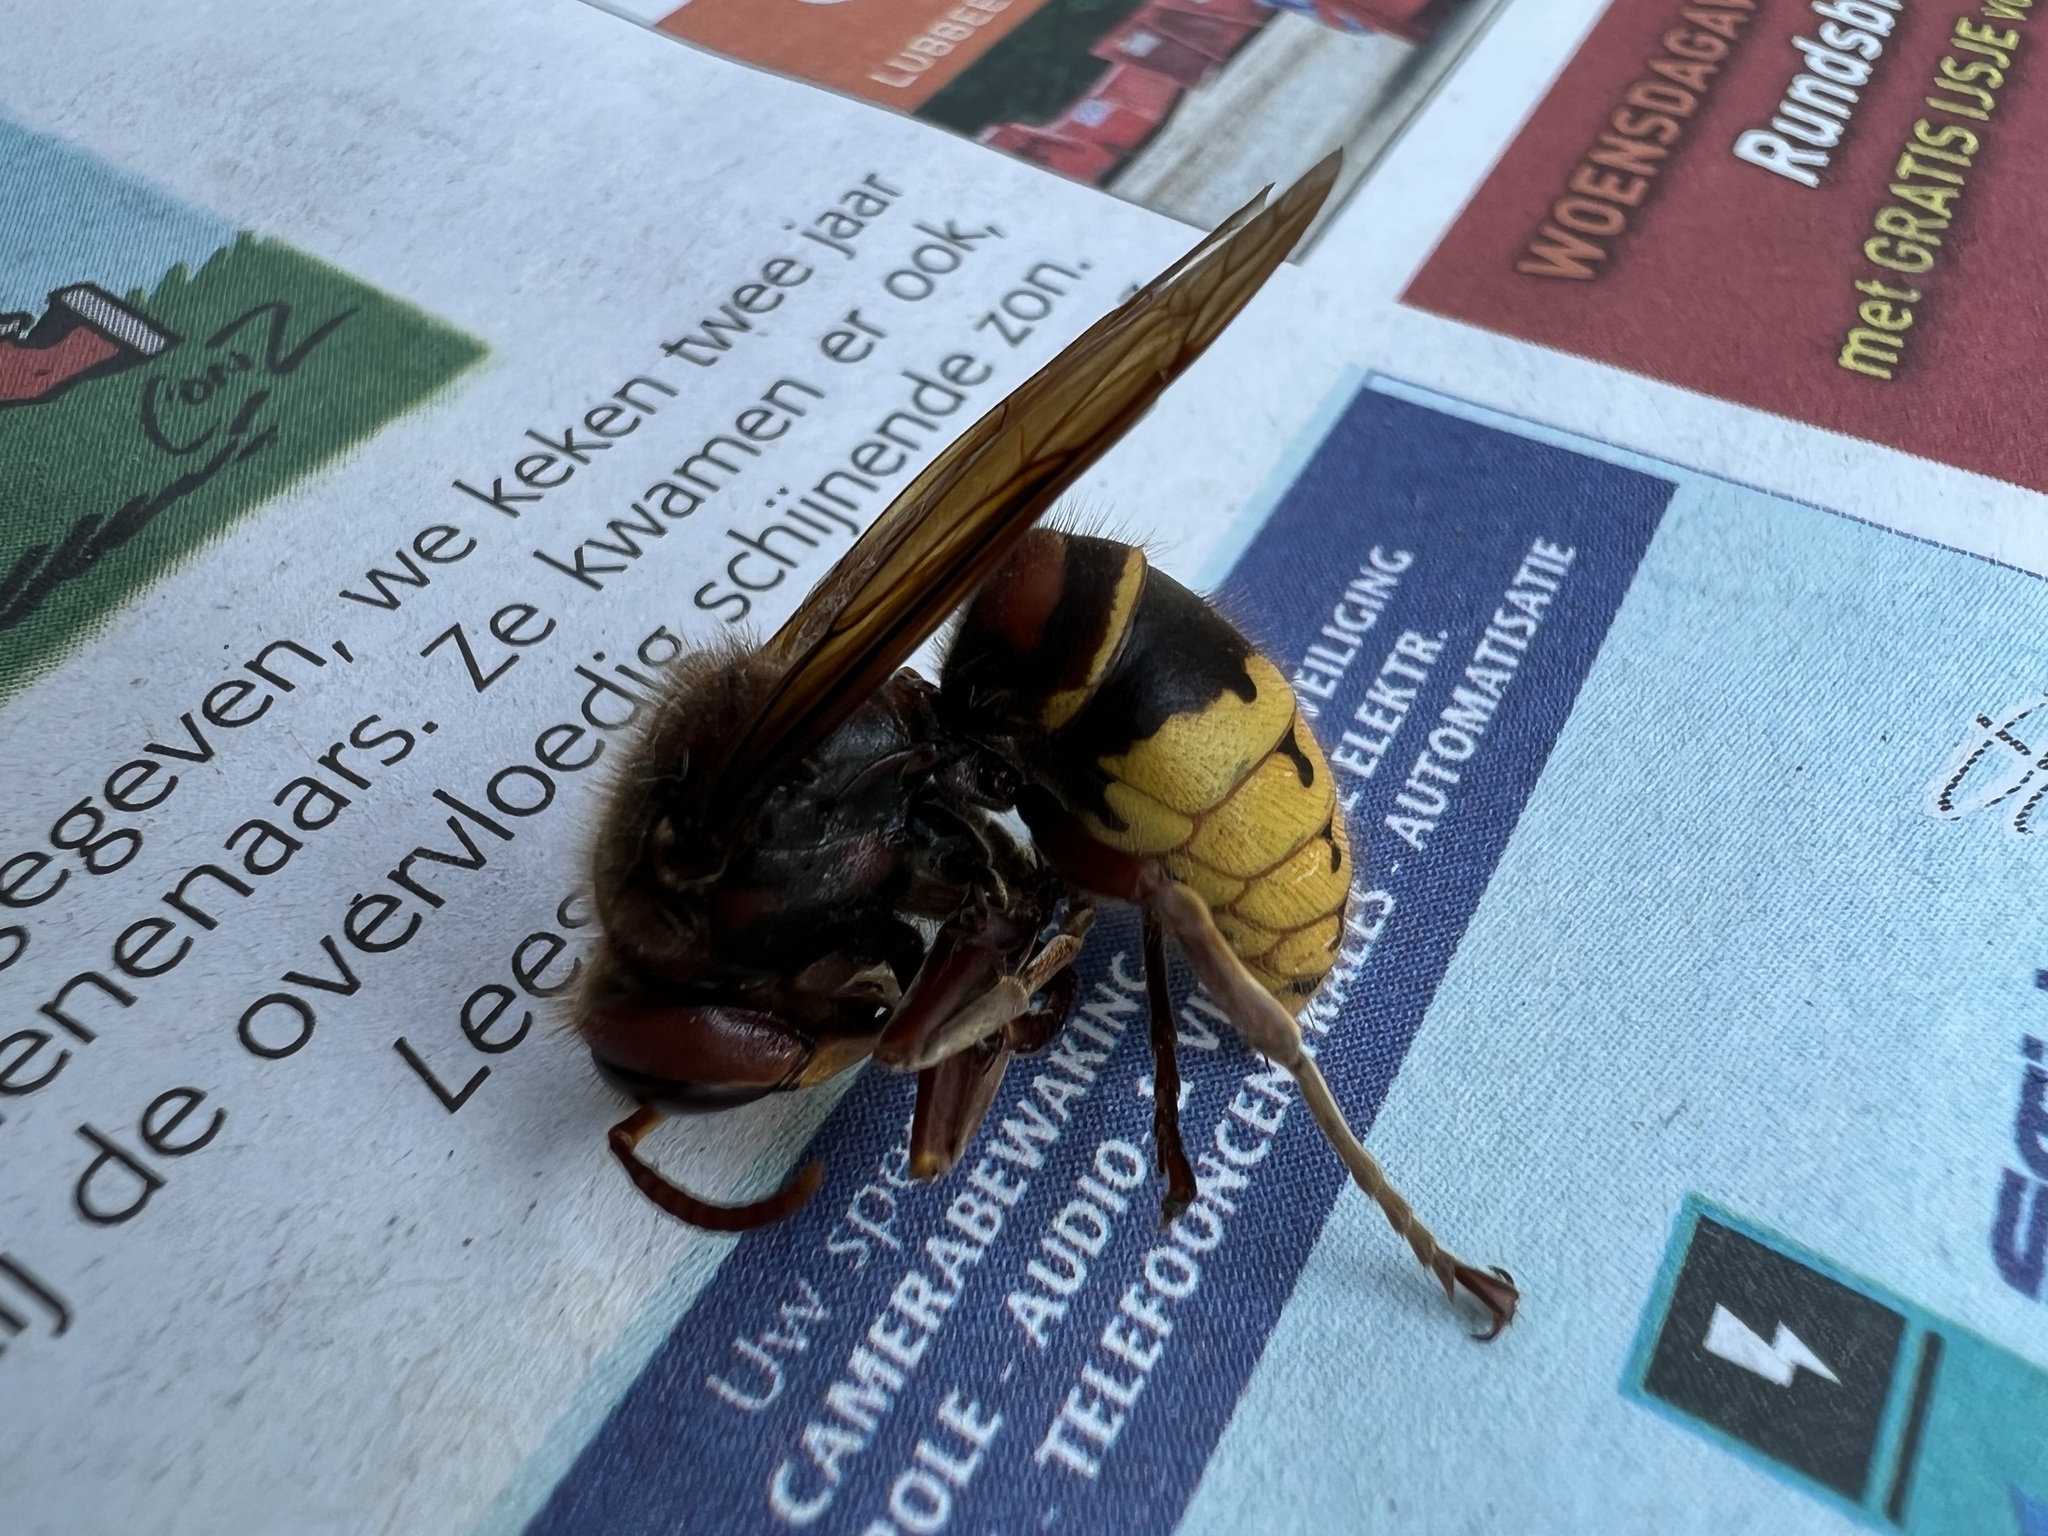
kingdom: Animalia
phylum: Arthropoda
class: Insecta
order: Hymenoptera
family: Vespidae
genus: Vespa
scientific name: Vespa crabro
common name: Hornet
